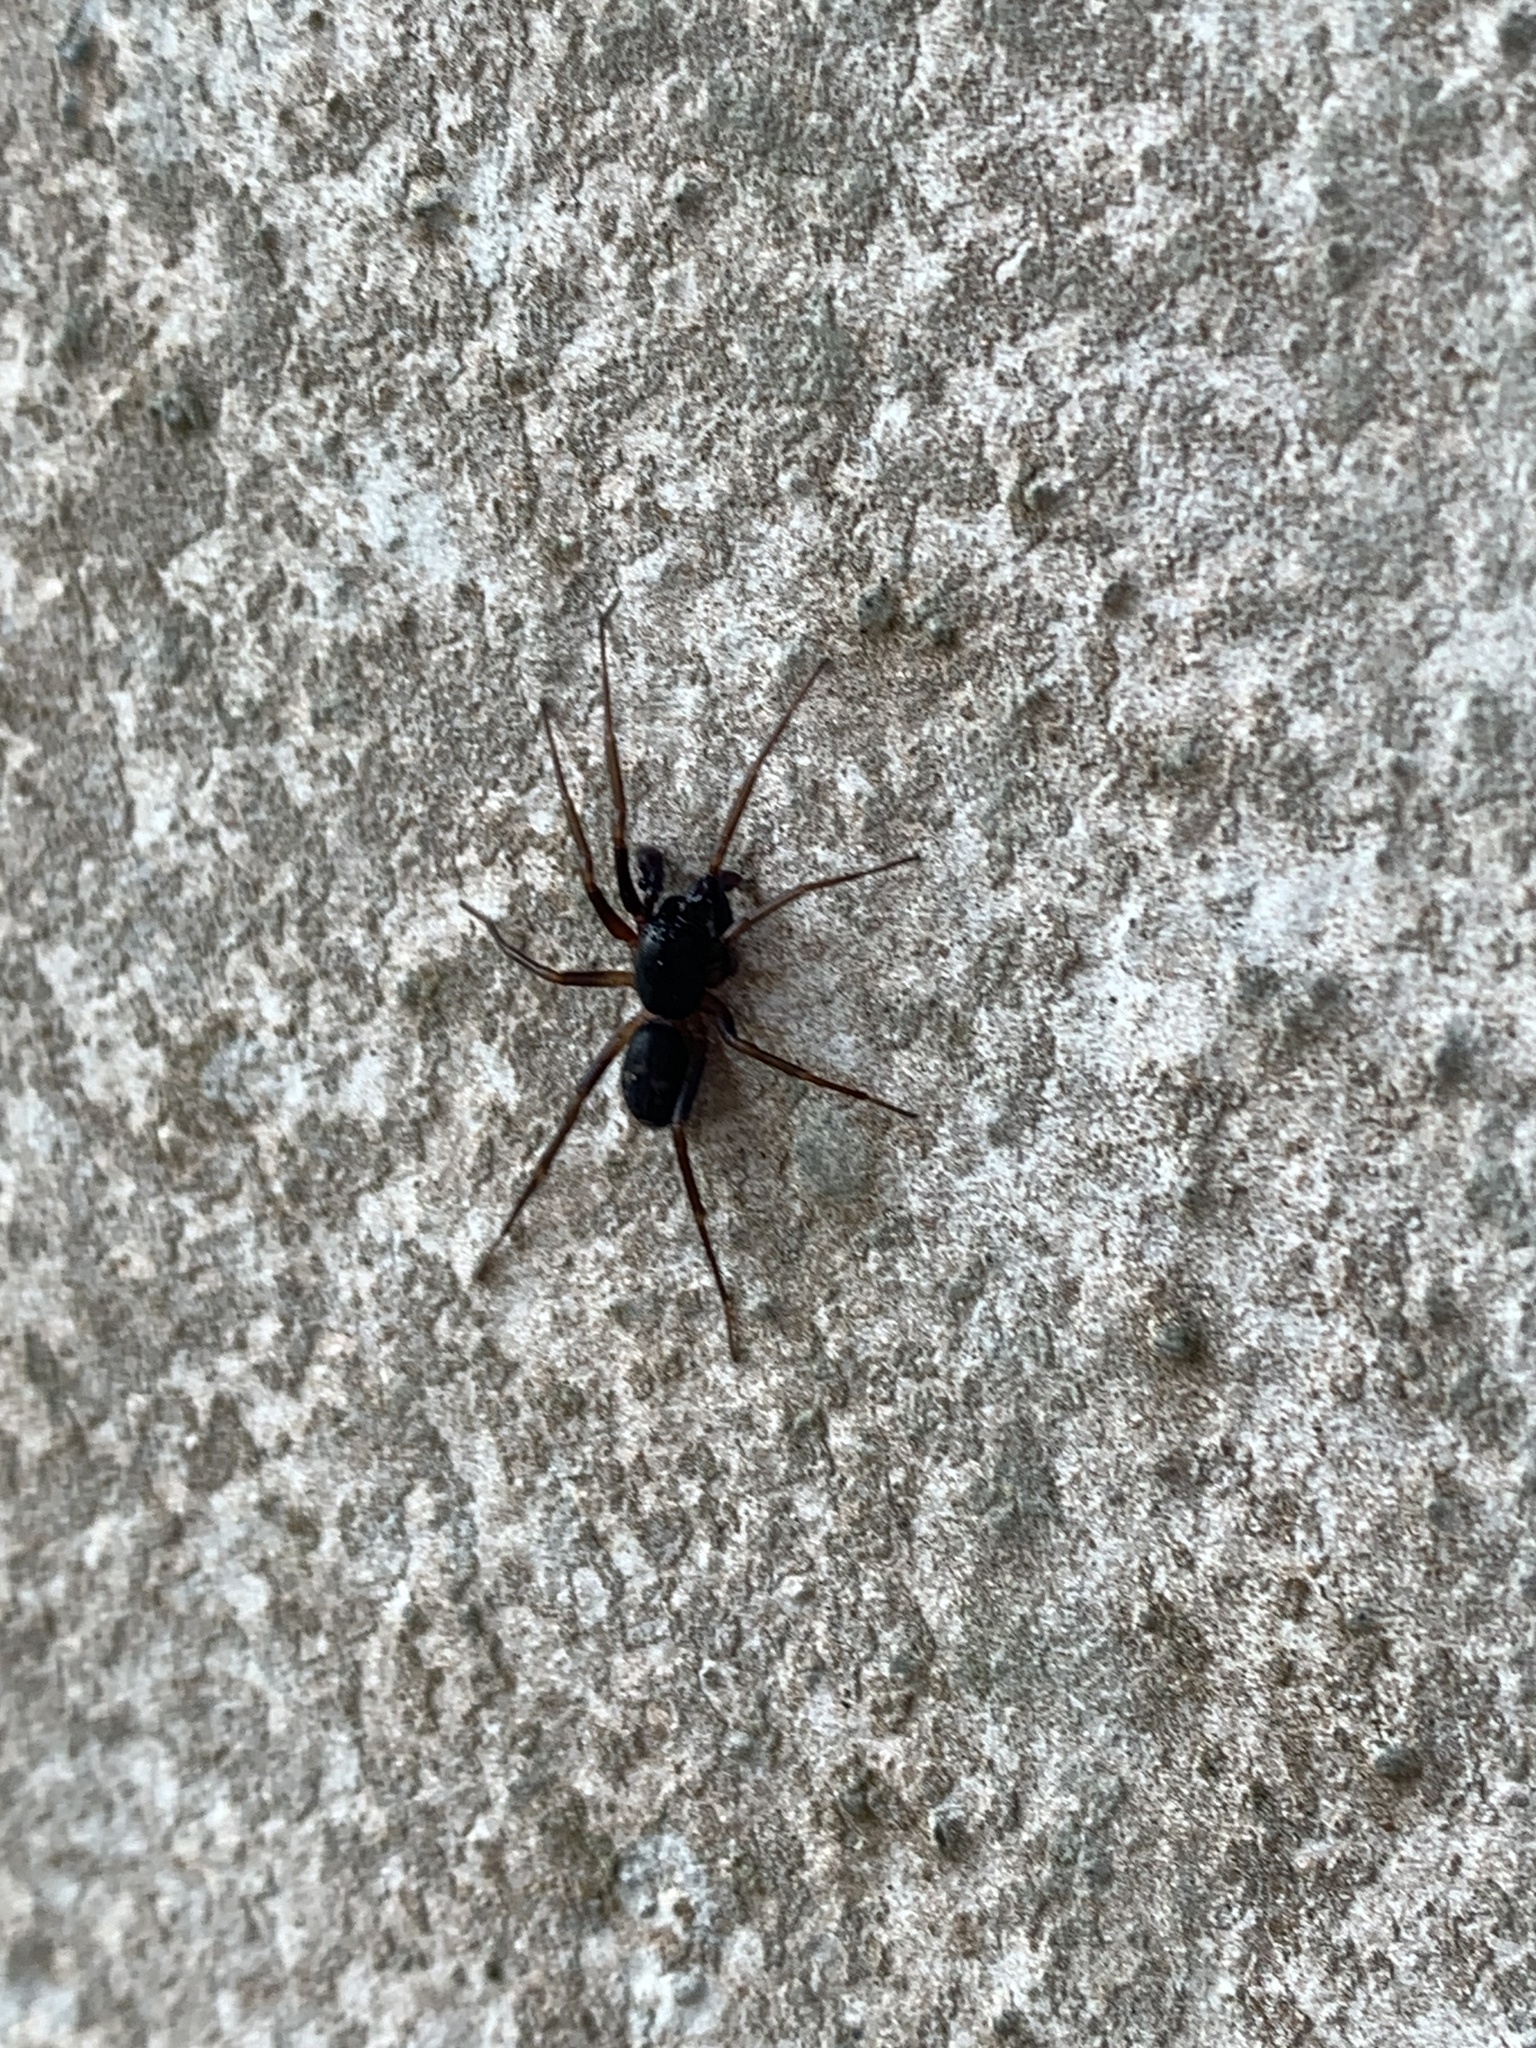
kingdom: Animalia
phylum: Arthropoda
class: Arachnida
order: Araneae
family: Corinnidae
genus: Falconina
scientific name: Falconina gracilis
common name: Antmimic spider
